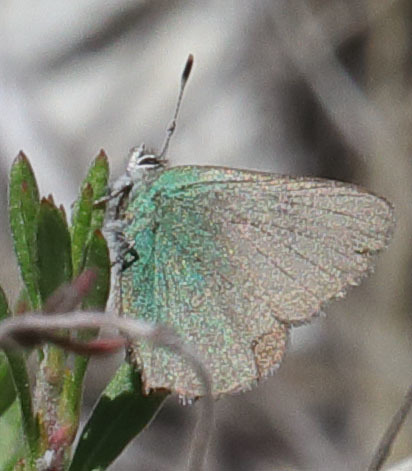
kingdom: Animalia
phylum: Arthropoda
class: Insecta
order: Lepidoptera
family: Lycaenidae
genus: Callophrys
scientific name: Callophrys dumetorum
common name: Bramble hairstreak
